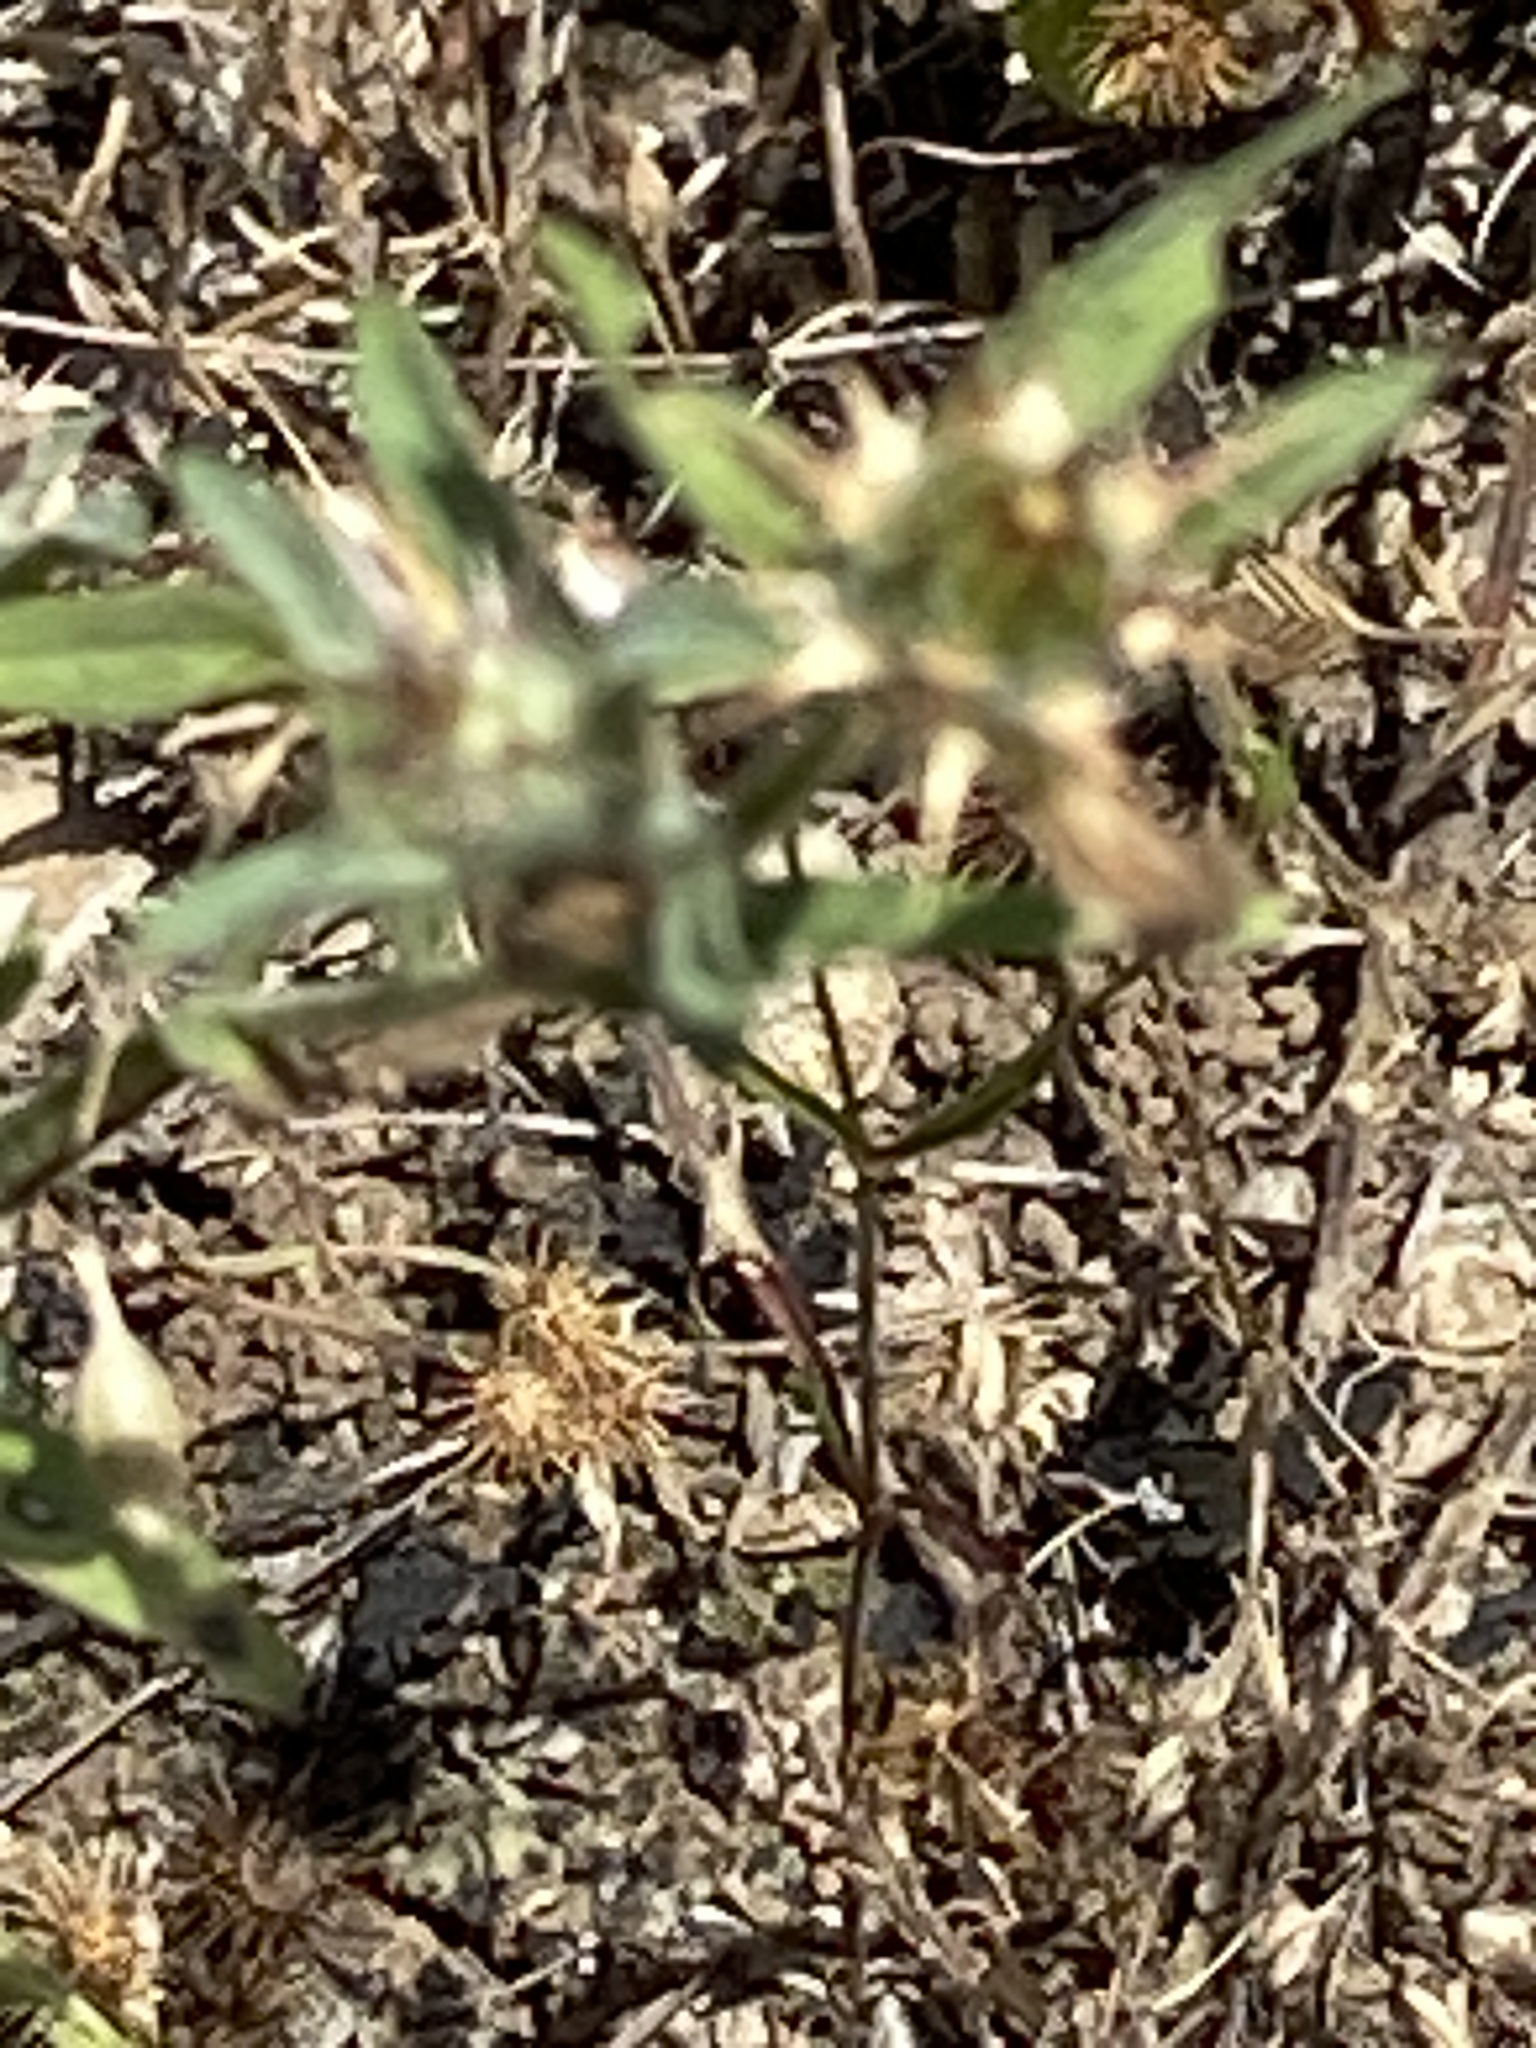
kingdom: Plantae
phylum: Tracheophyta
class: Magnoliopsida
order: Asterales
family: Asteraceae
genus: Centaurea
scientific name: Centaurea melitensis
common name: Maltese star-thistle
